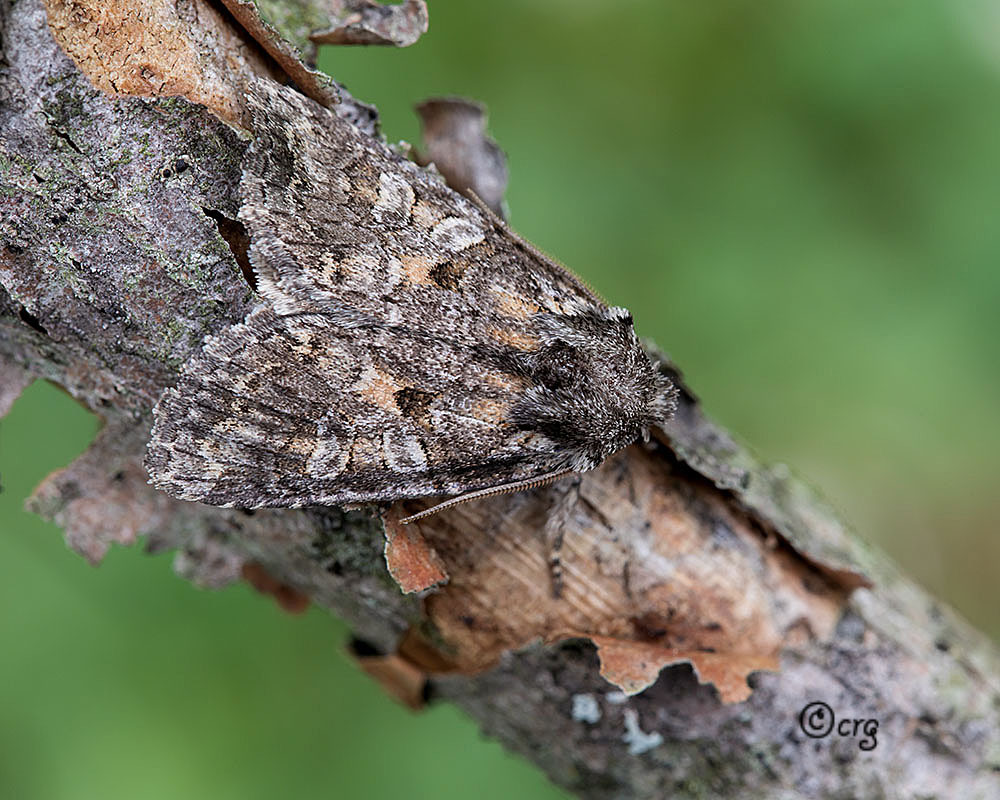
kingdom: Animalia
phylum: Arthropoda
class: Insecta
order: Lepidoptera
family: Noctuidae
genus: Orthodes
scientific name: Orthodes detracta
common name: Disparaged arches moth
